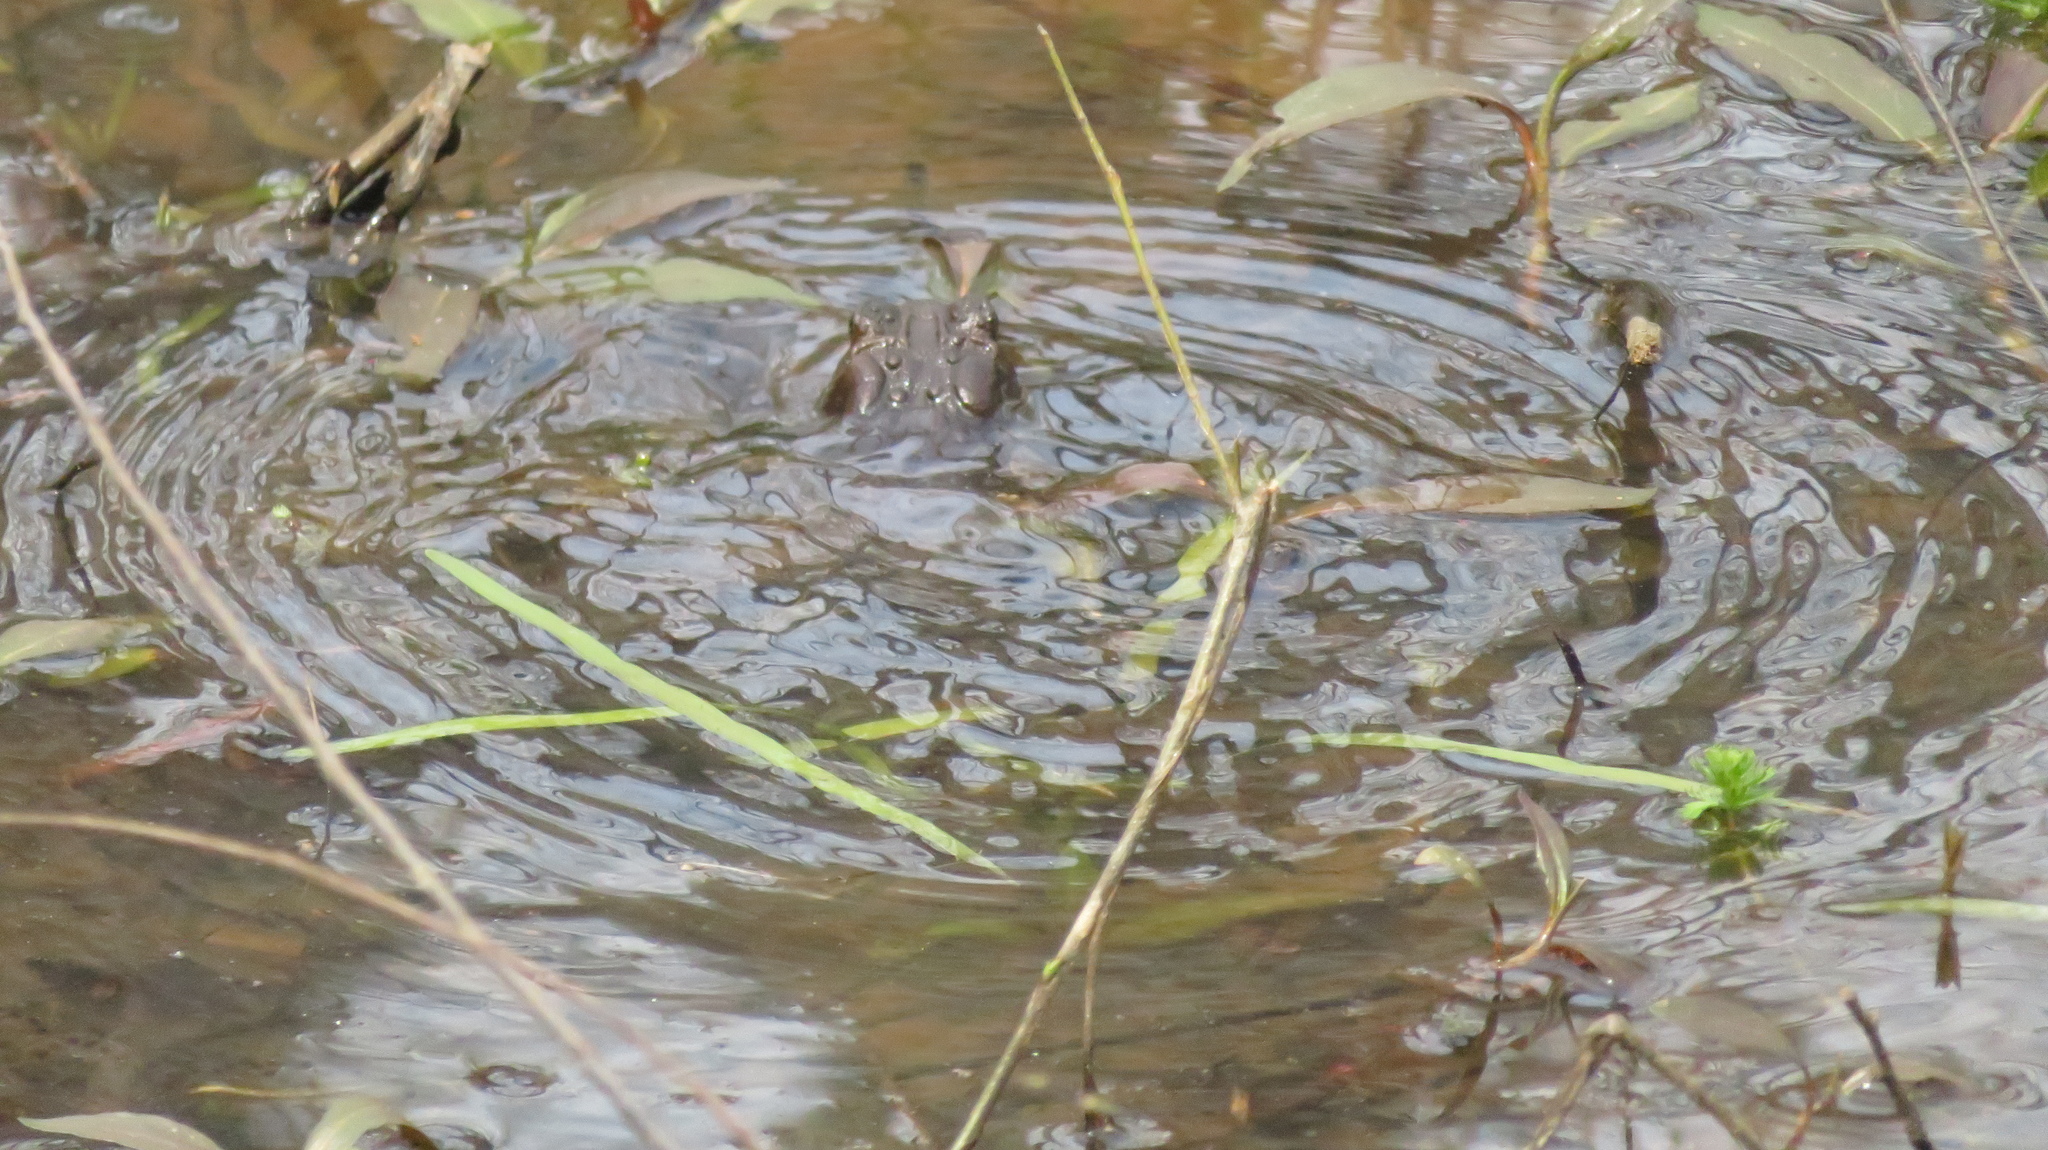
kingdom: Animalia
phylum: Chordata
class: Amphibia
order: Anura
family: Bufonidae
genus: Anaxyrus
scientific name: Anaxyrus americanus
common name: American toad
